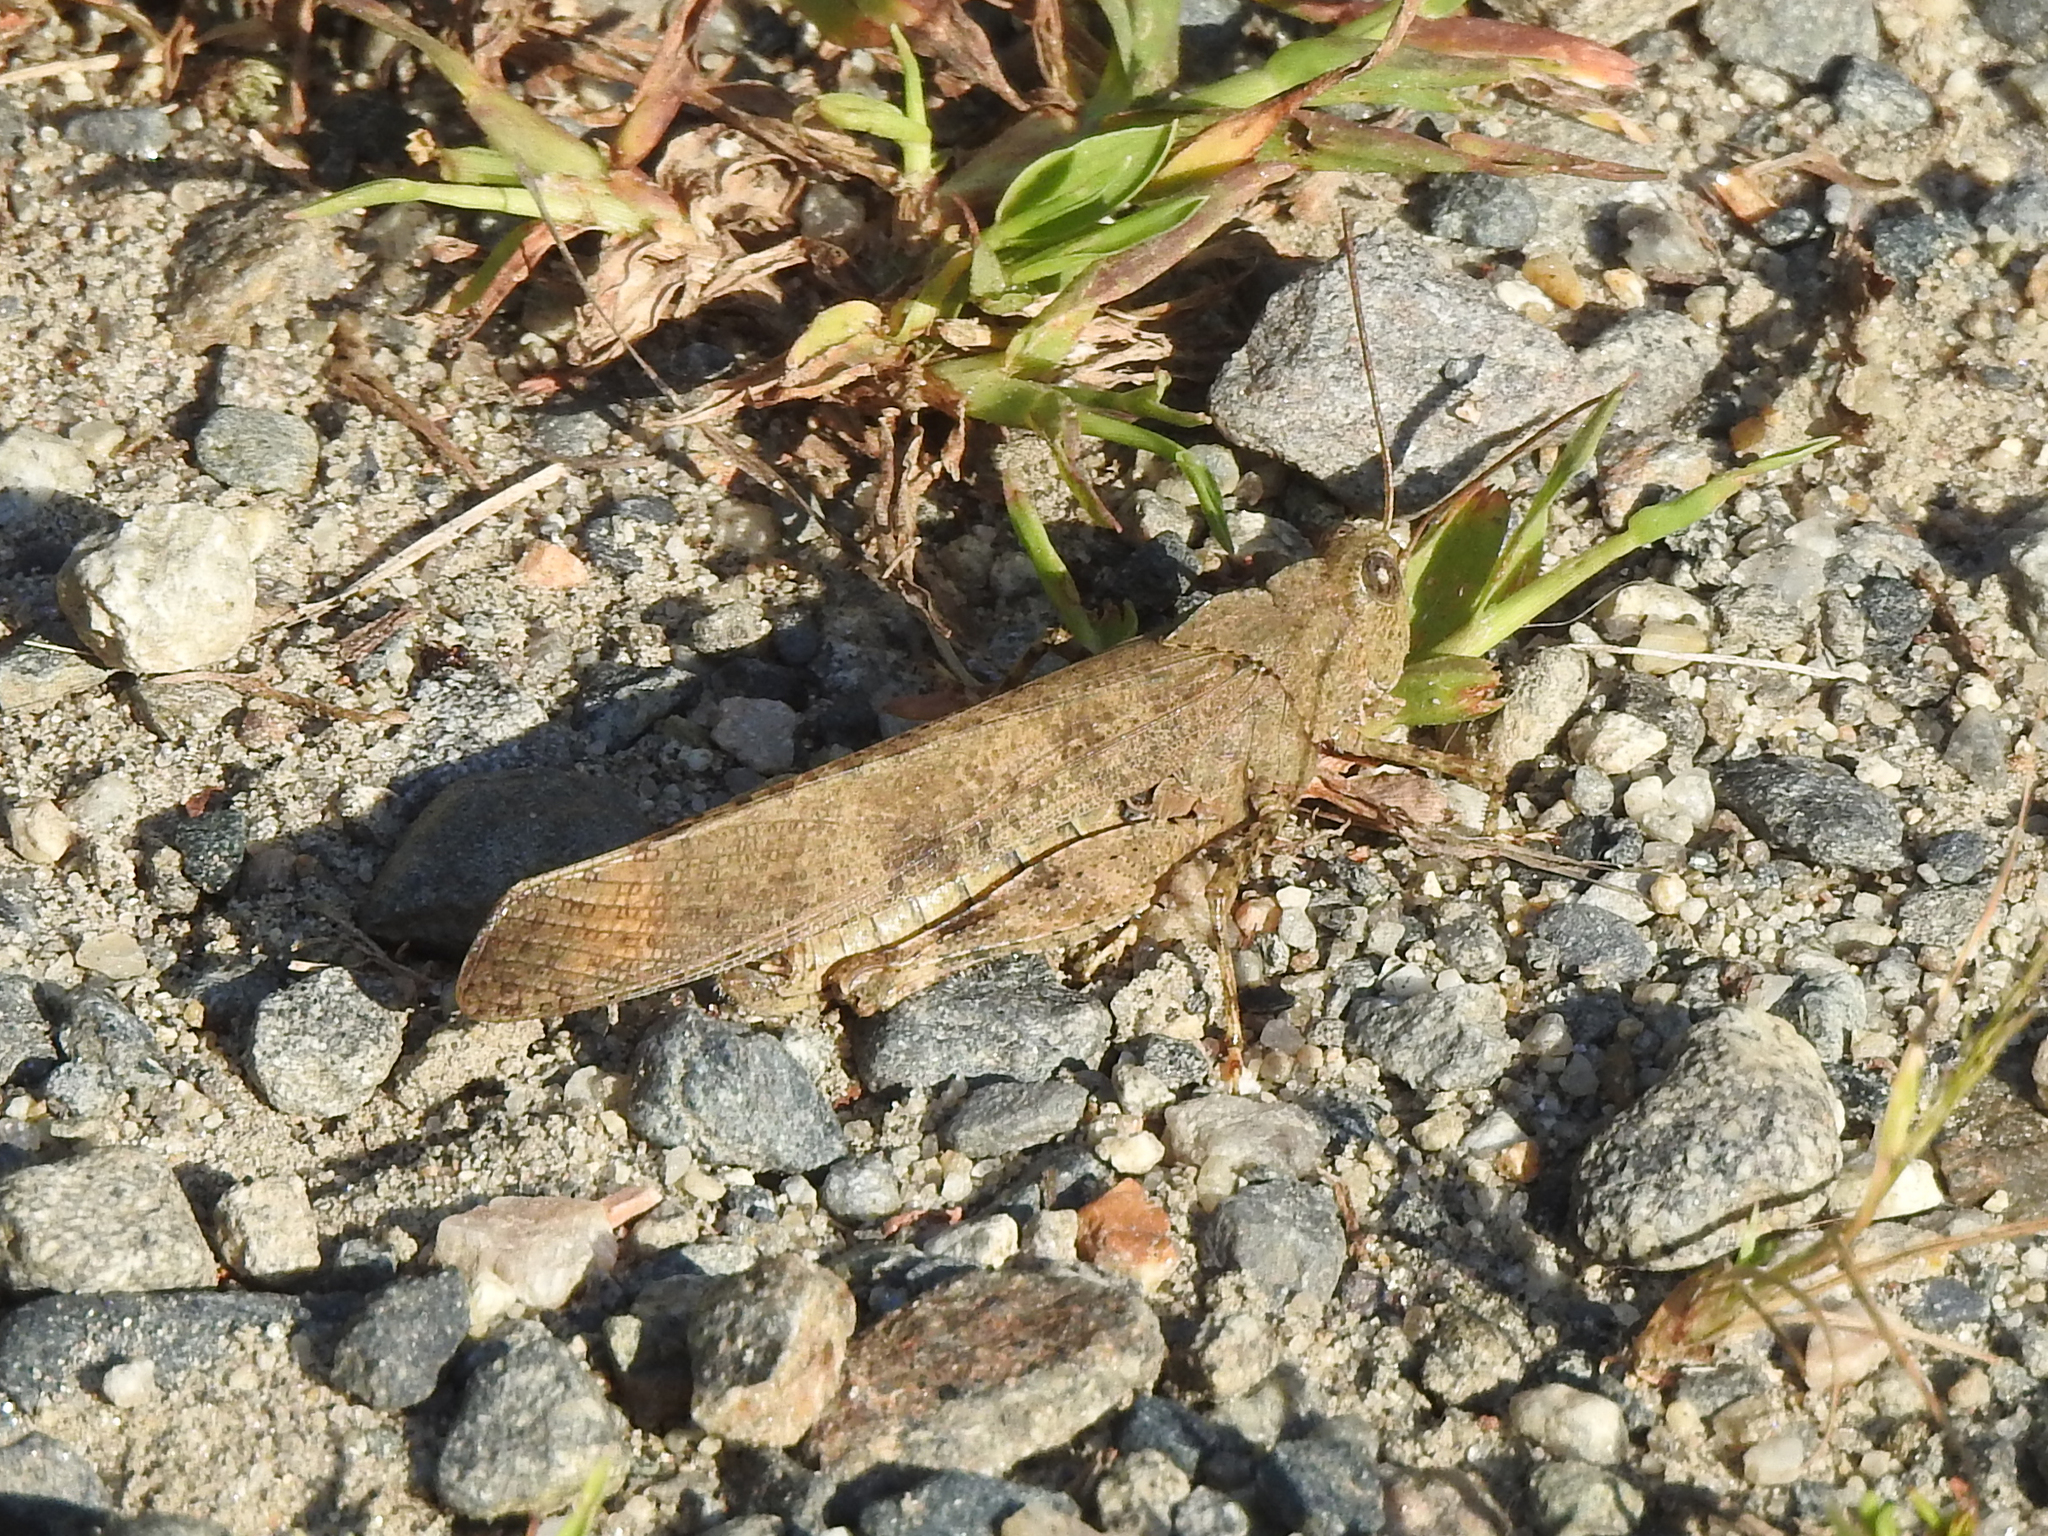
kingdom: Animalia
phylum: Arthropoda
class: Insecta
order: Orthoptera
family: Acrididae
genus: Dissosteira
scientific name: Dissosteira carolina
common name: Carolina grasshopper
